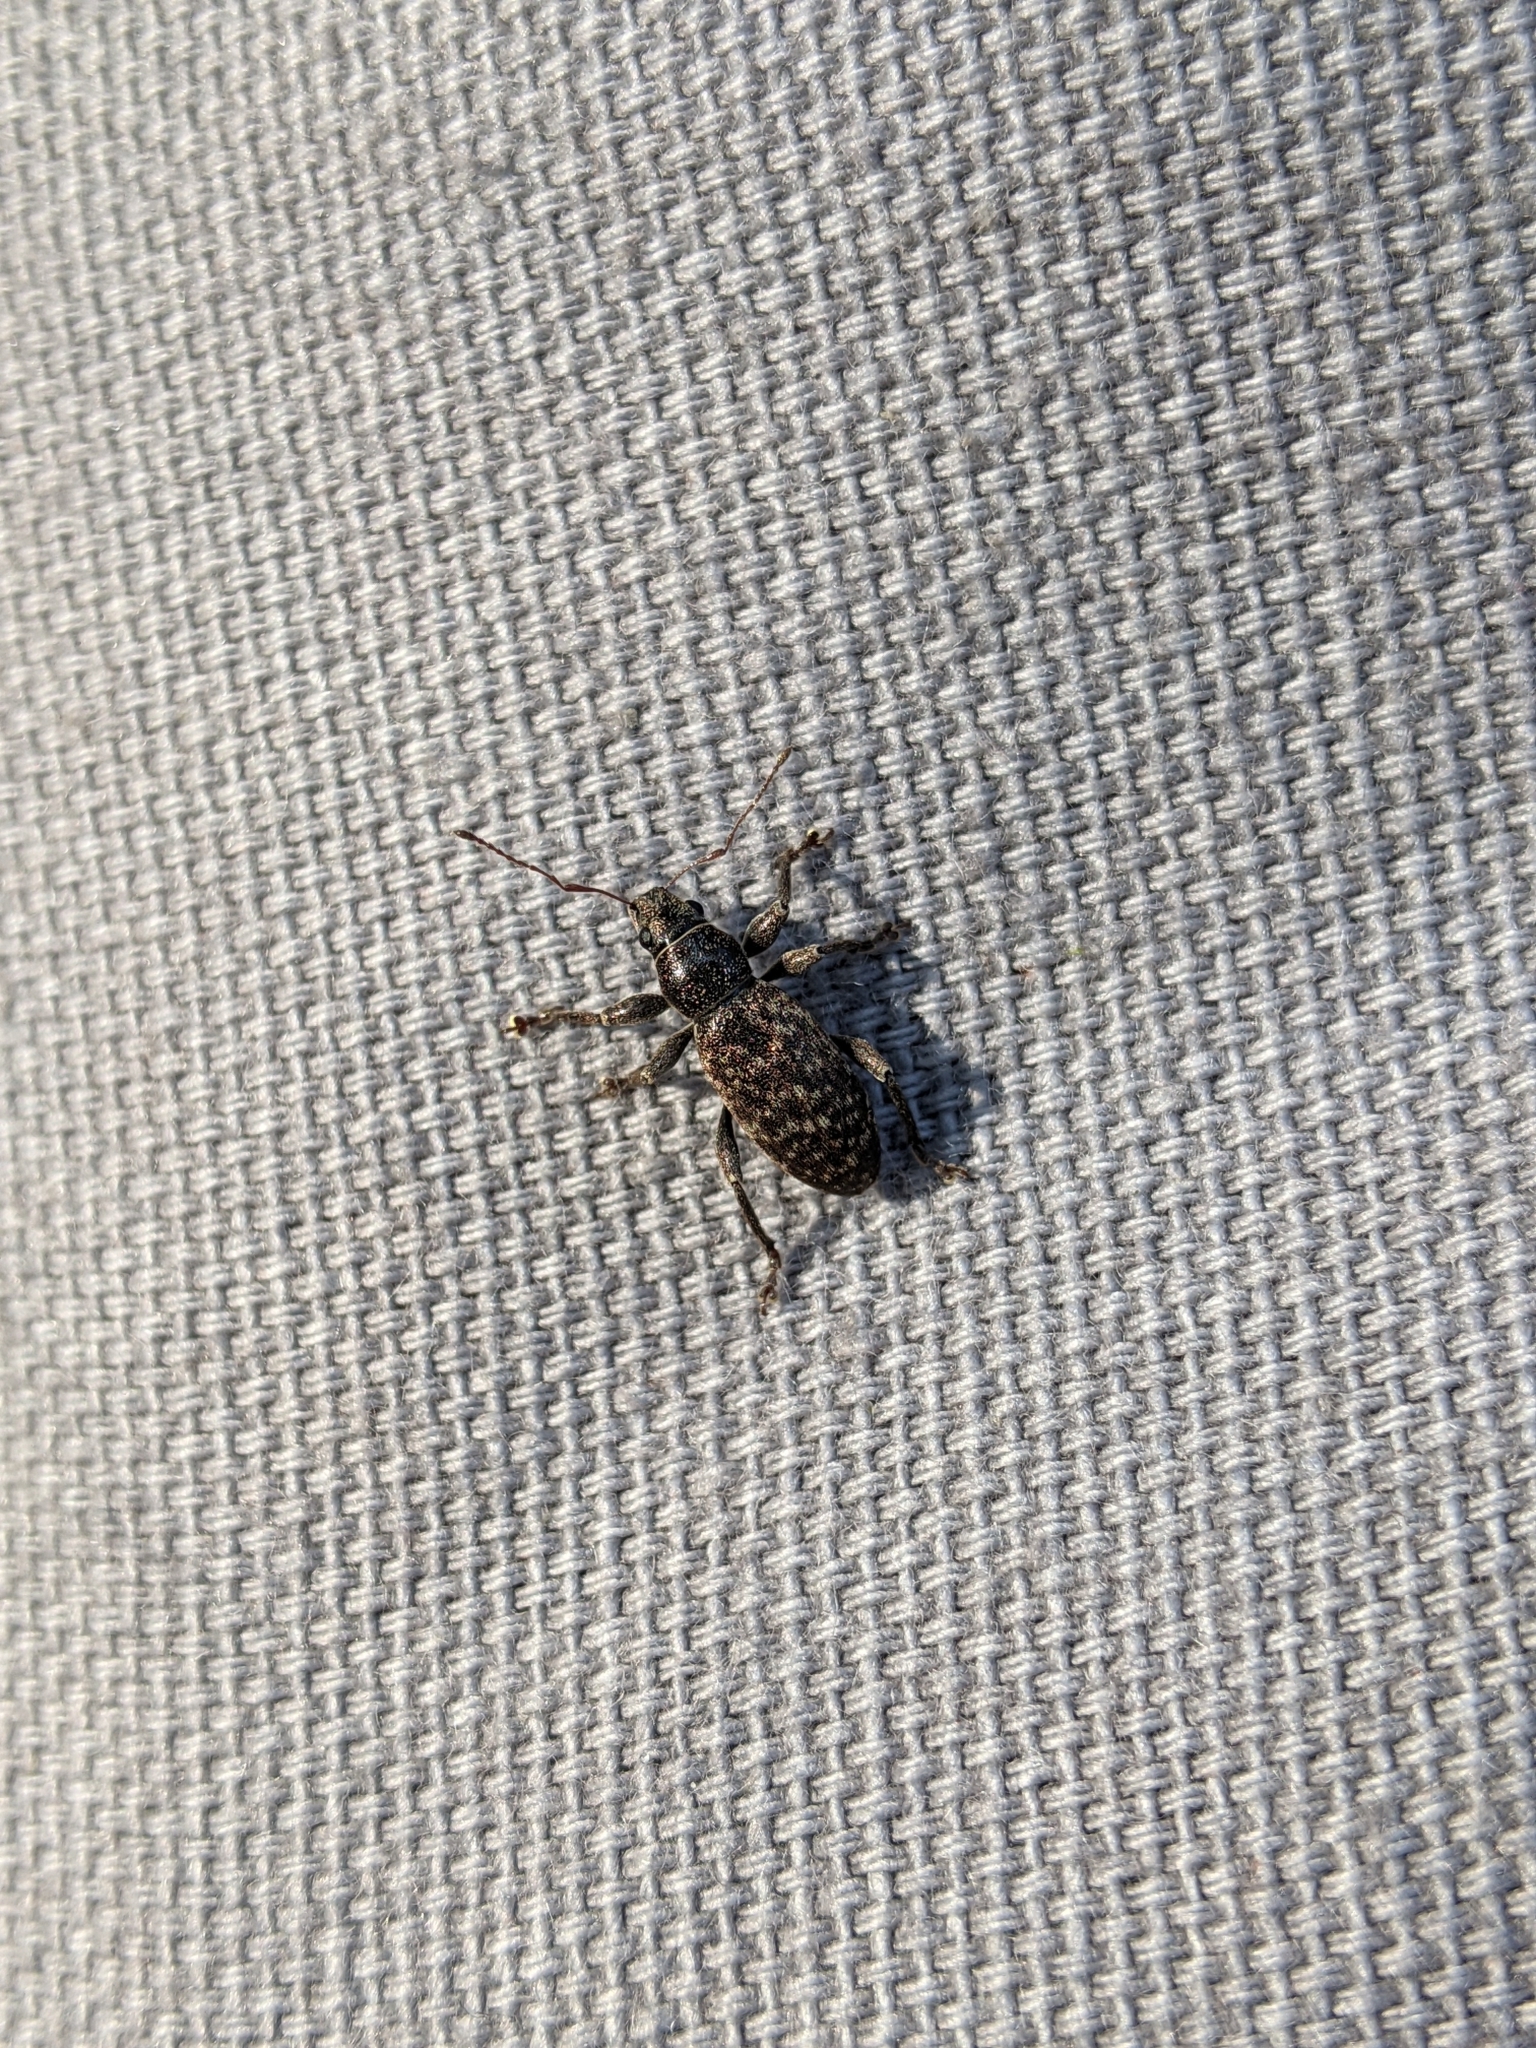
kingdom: Animalia
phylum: Arthropoda
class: Insecta
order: Coleoptera
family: Curculionidae
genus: Brachyderes
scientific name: Brachyderes incanus
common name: Weevil
